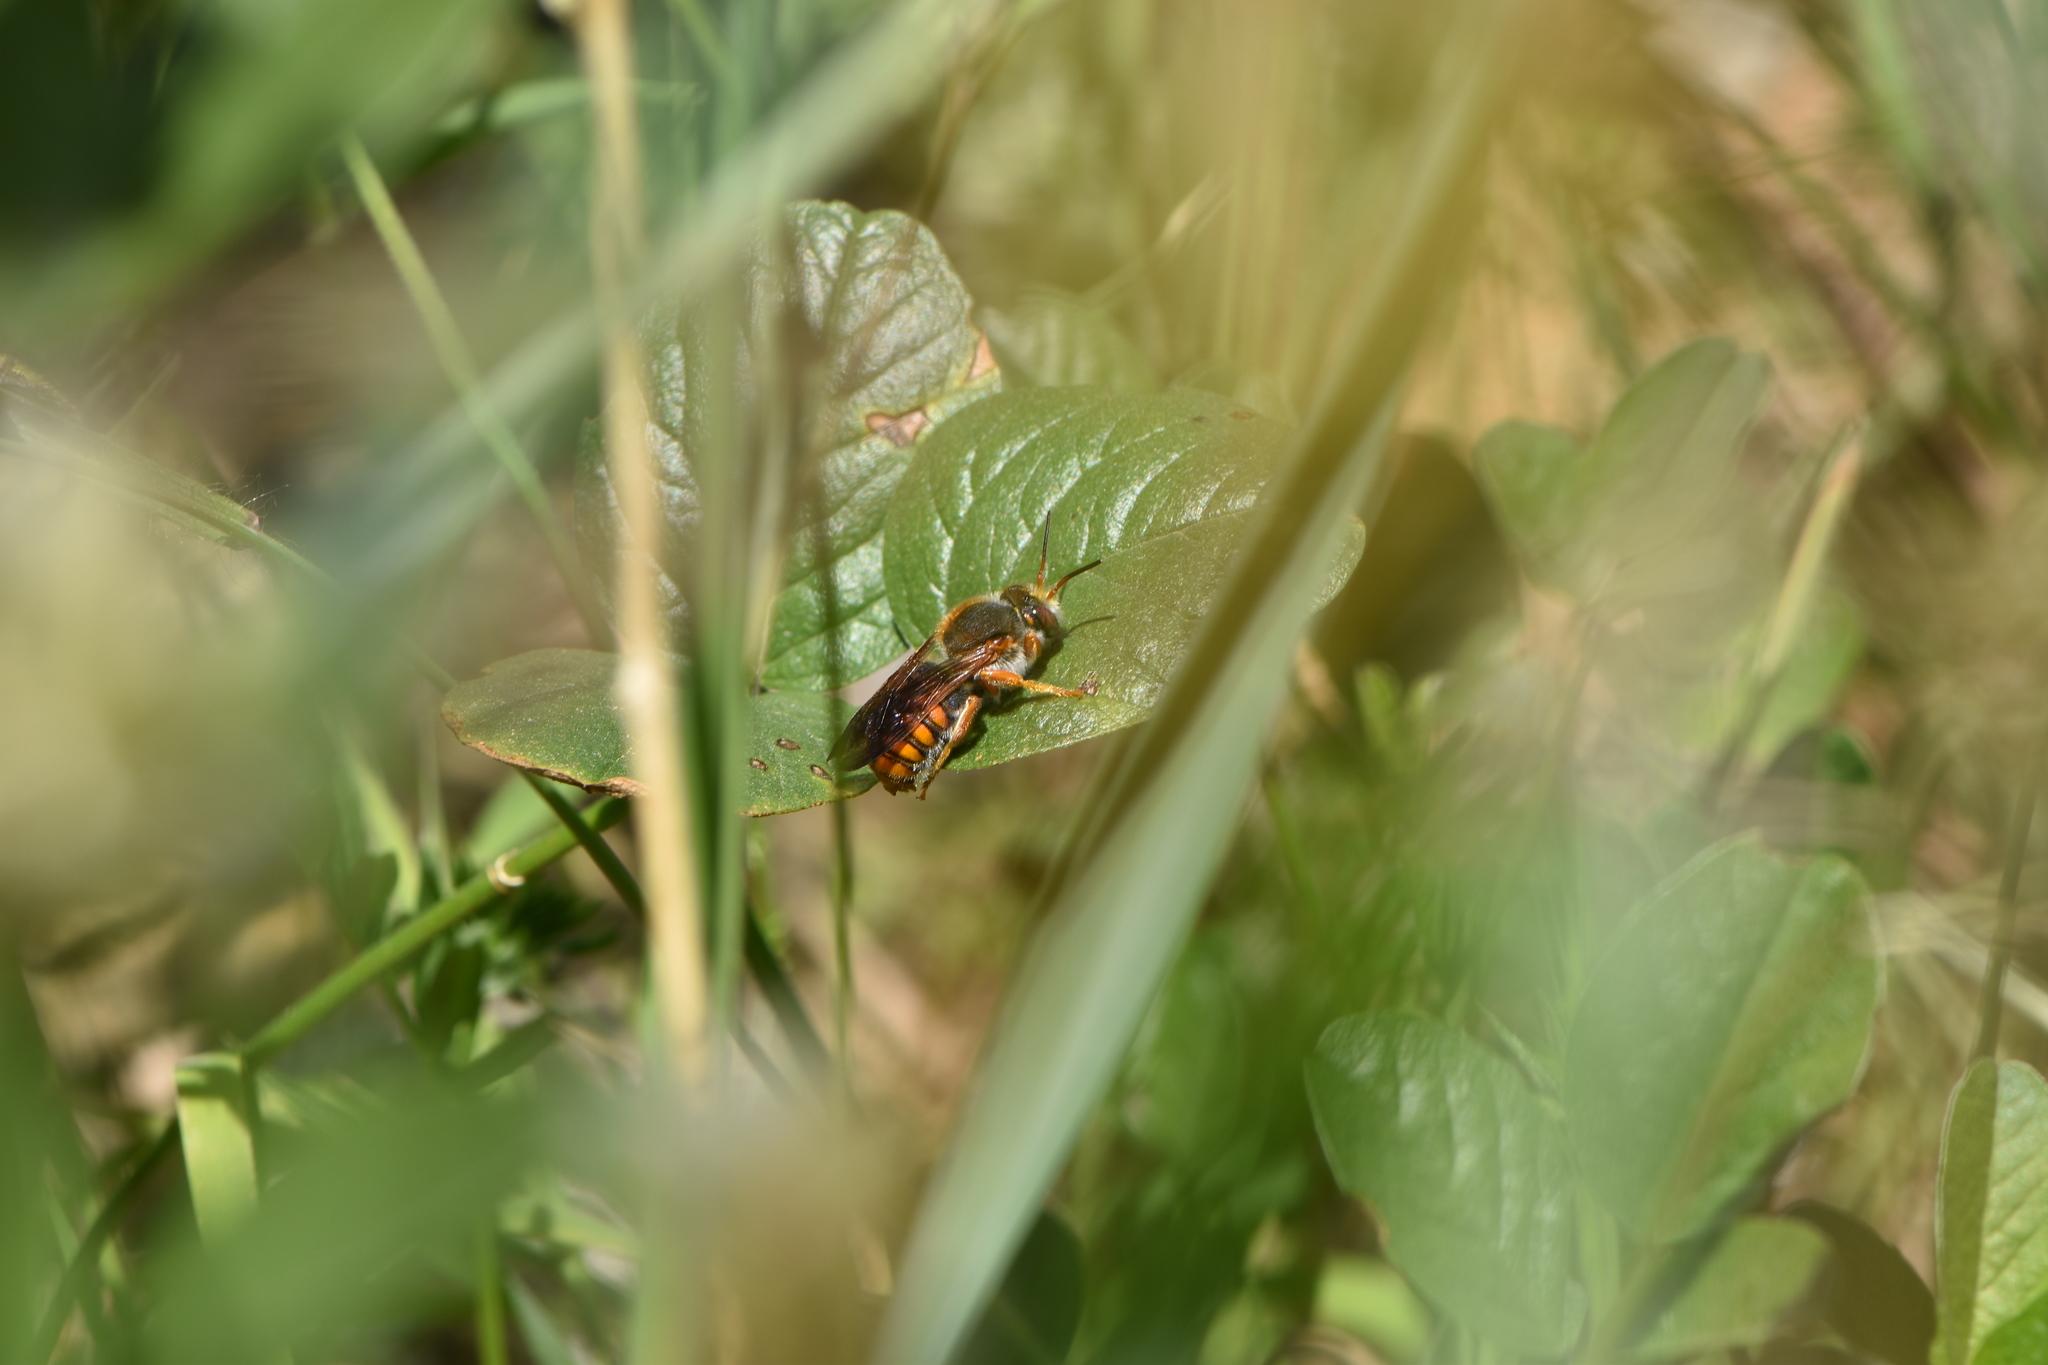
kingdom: Animalia
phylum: Arthropoda
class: Insecta
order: Hymenoptera
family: Megachilidae
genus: Rhodanthidium
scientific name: Rhodanthidium sticticum
